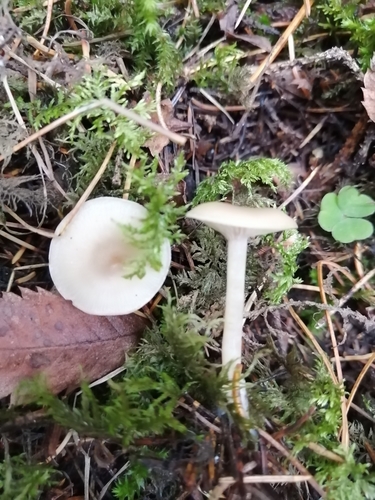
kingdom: Fungi
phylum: Basidiomycota
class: Agaricomycetes
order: Agaricales
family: Tricholomataceae
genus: Clitocybe
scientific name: Clitocybe fragrans
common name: Fragrant funnel
